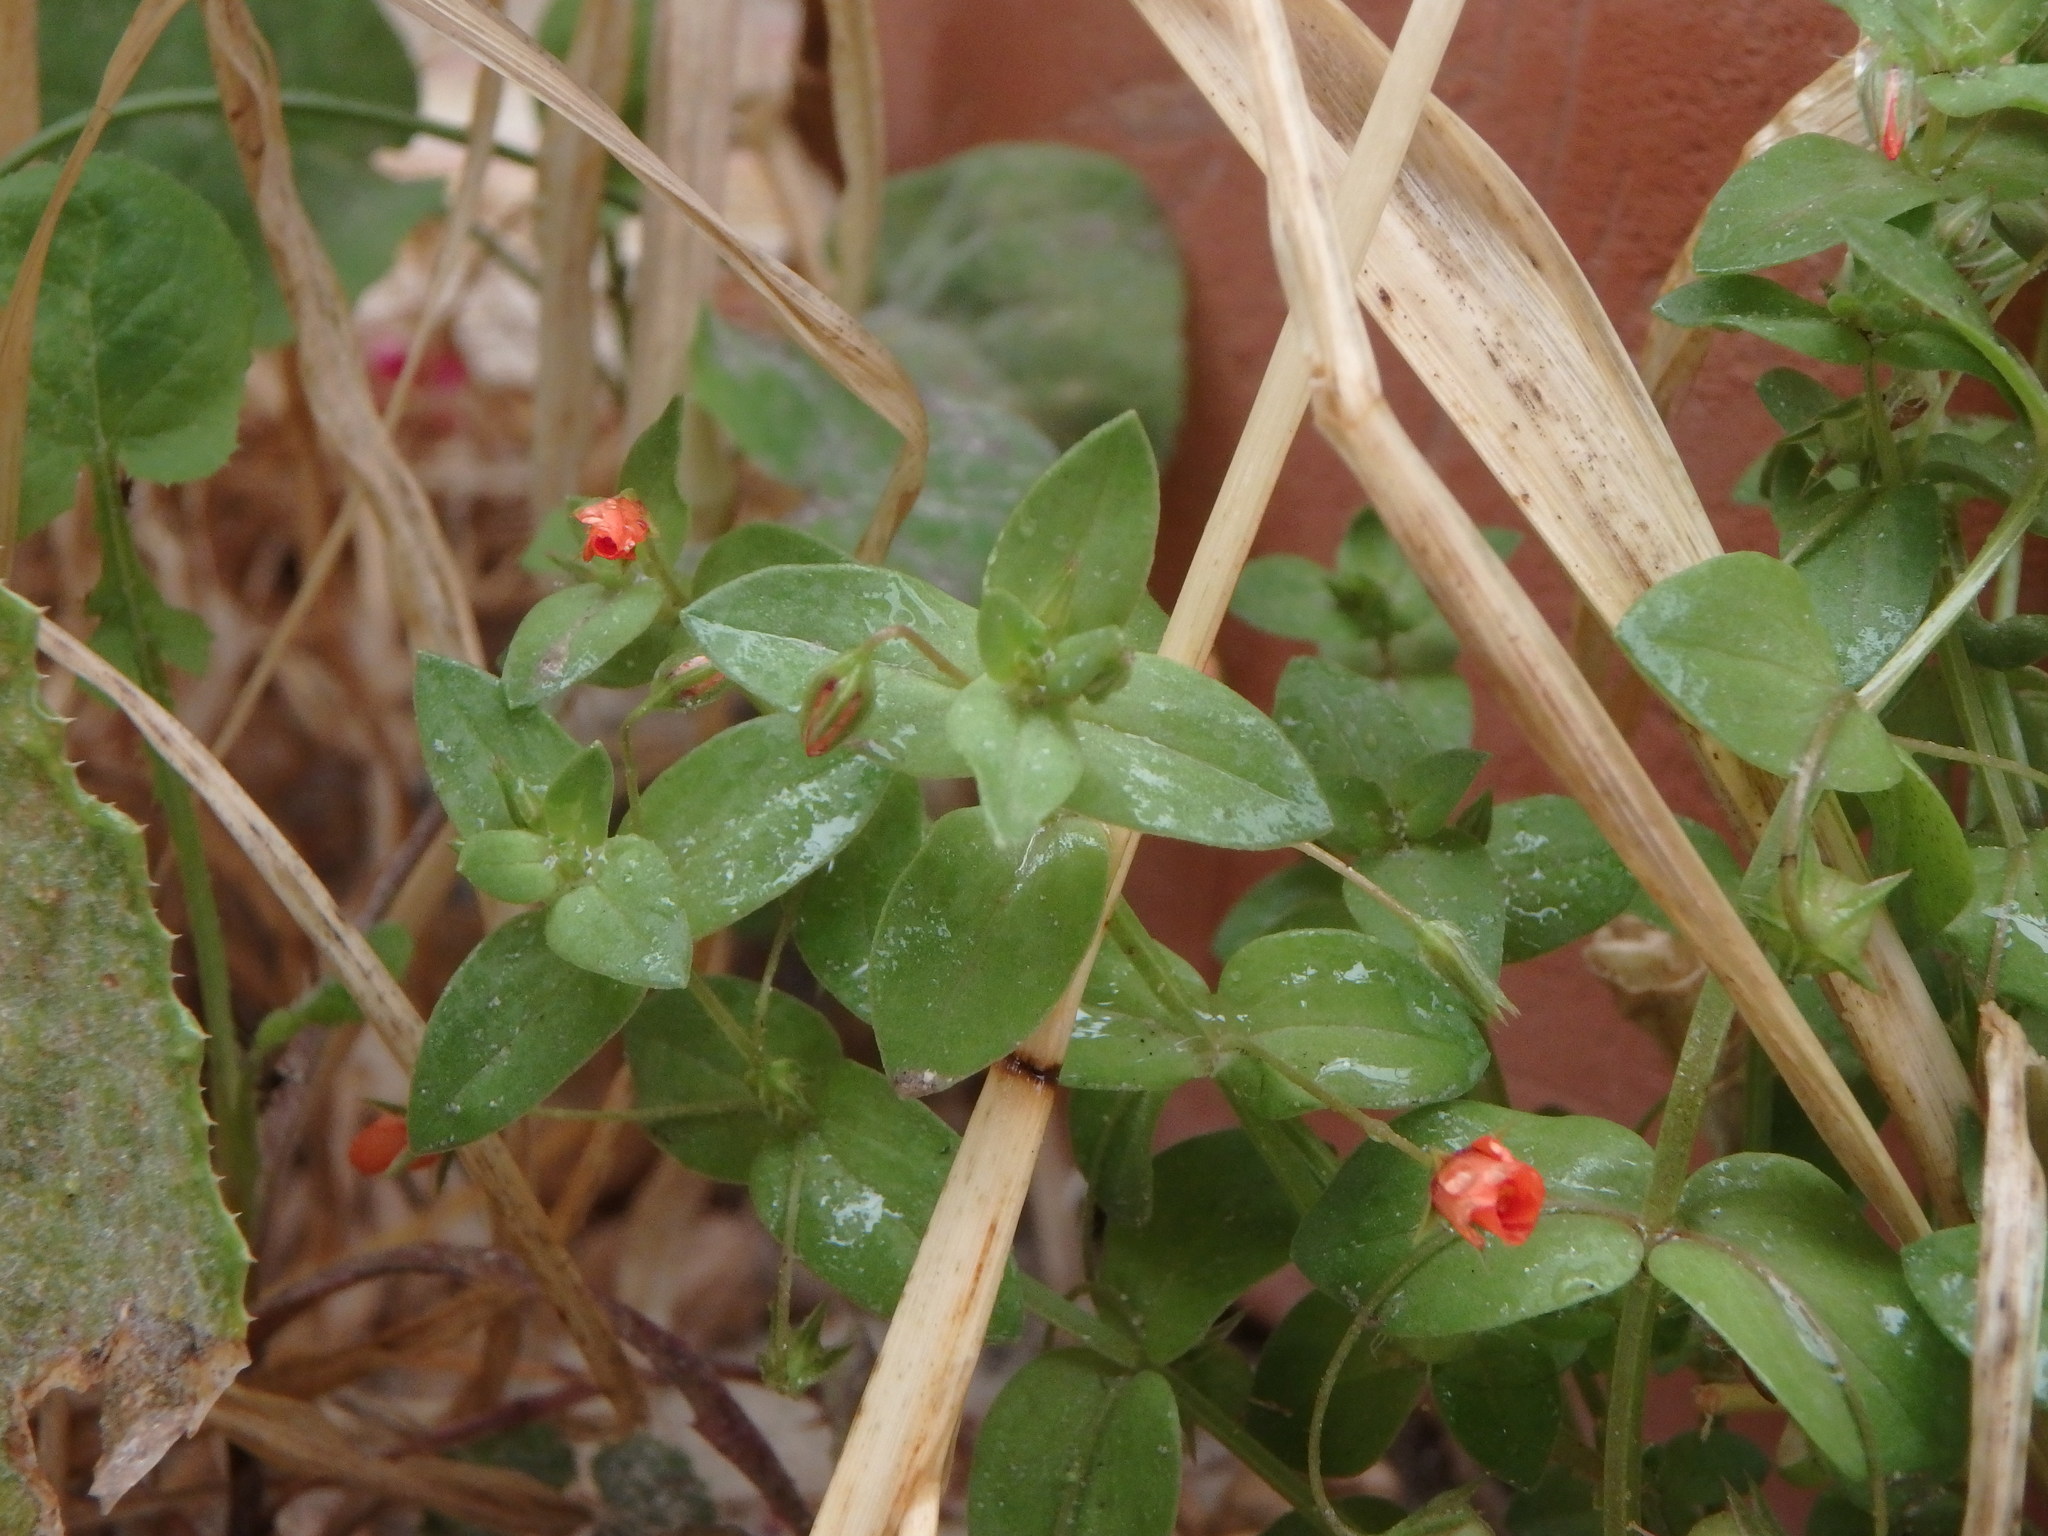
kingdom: Plantae
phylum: Tracheophyta
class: Magnoliopsida
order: Ericales
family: Primulaceae
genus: Lysimachia
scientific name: Lysimachia arvensis
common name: Scarlet pimpernel
